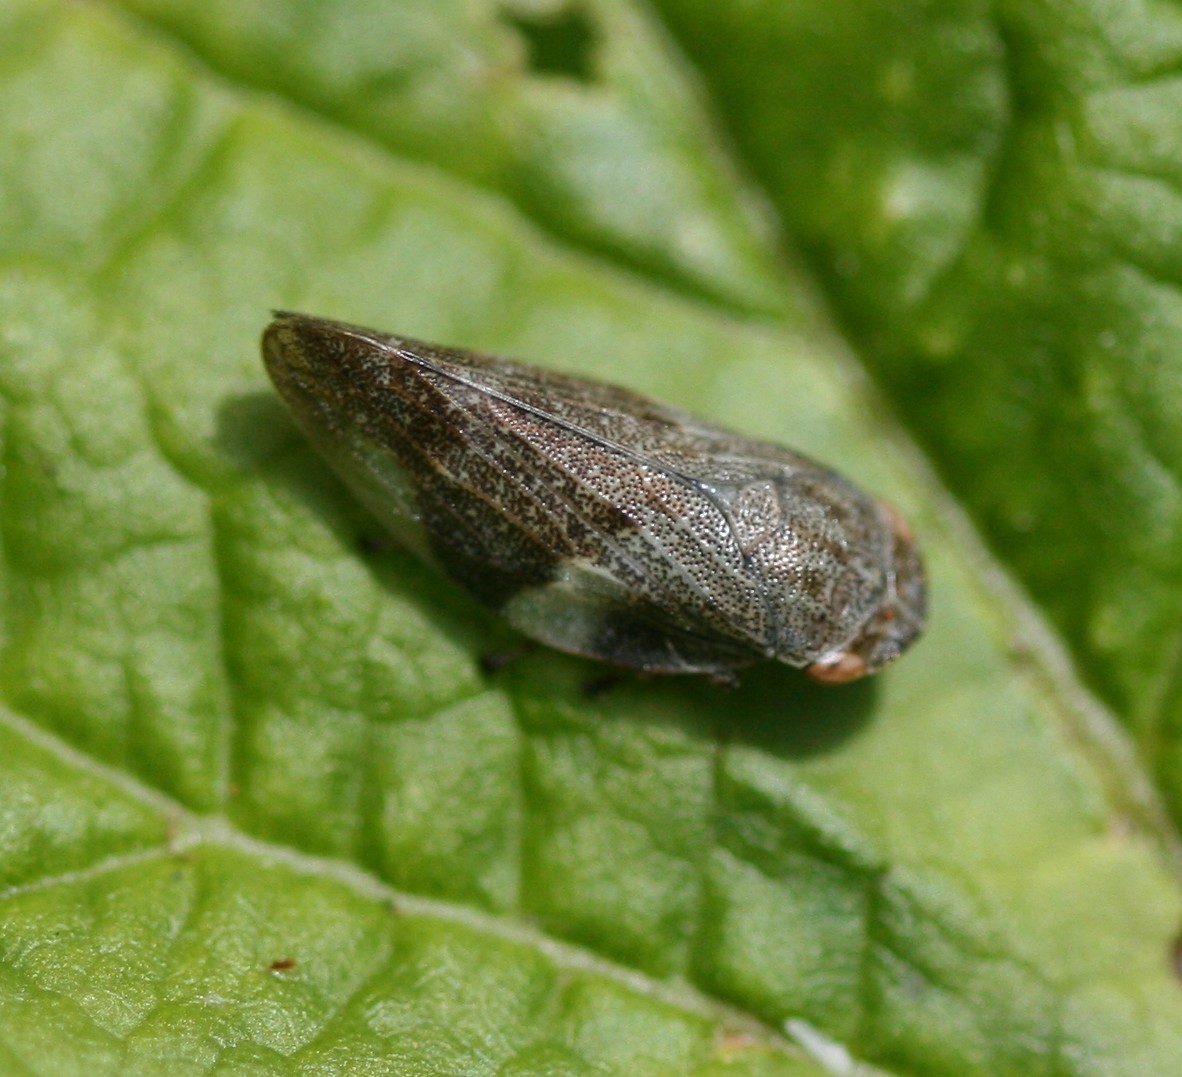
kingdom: Animalia
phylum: Arthropoda
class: Insecta
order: Hemiptera
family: Aphrophoridae
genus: Aphrophora
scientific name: Aphrophora alni
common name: European alder spittlebug
